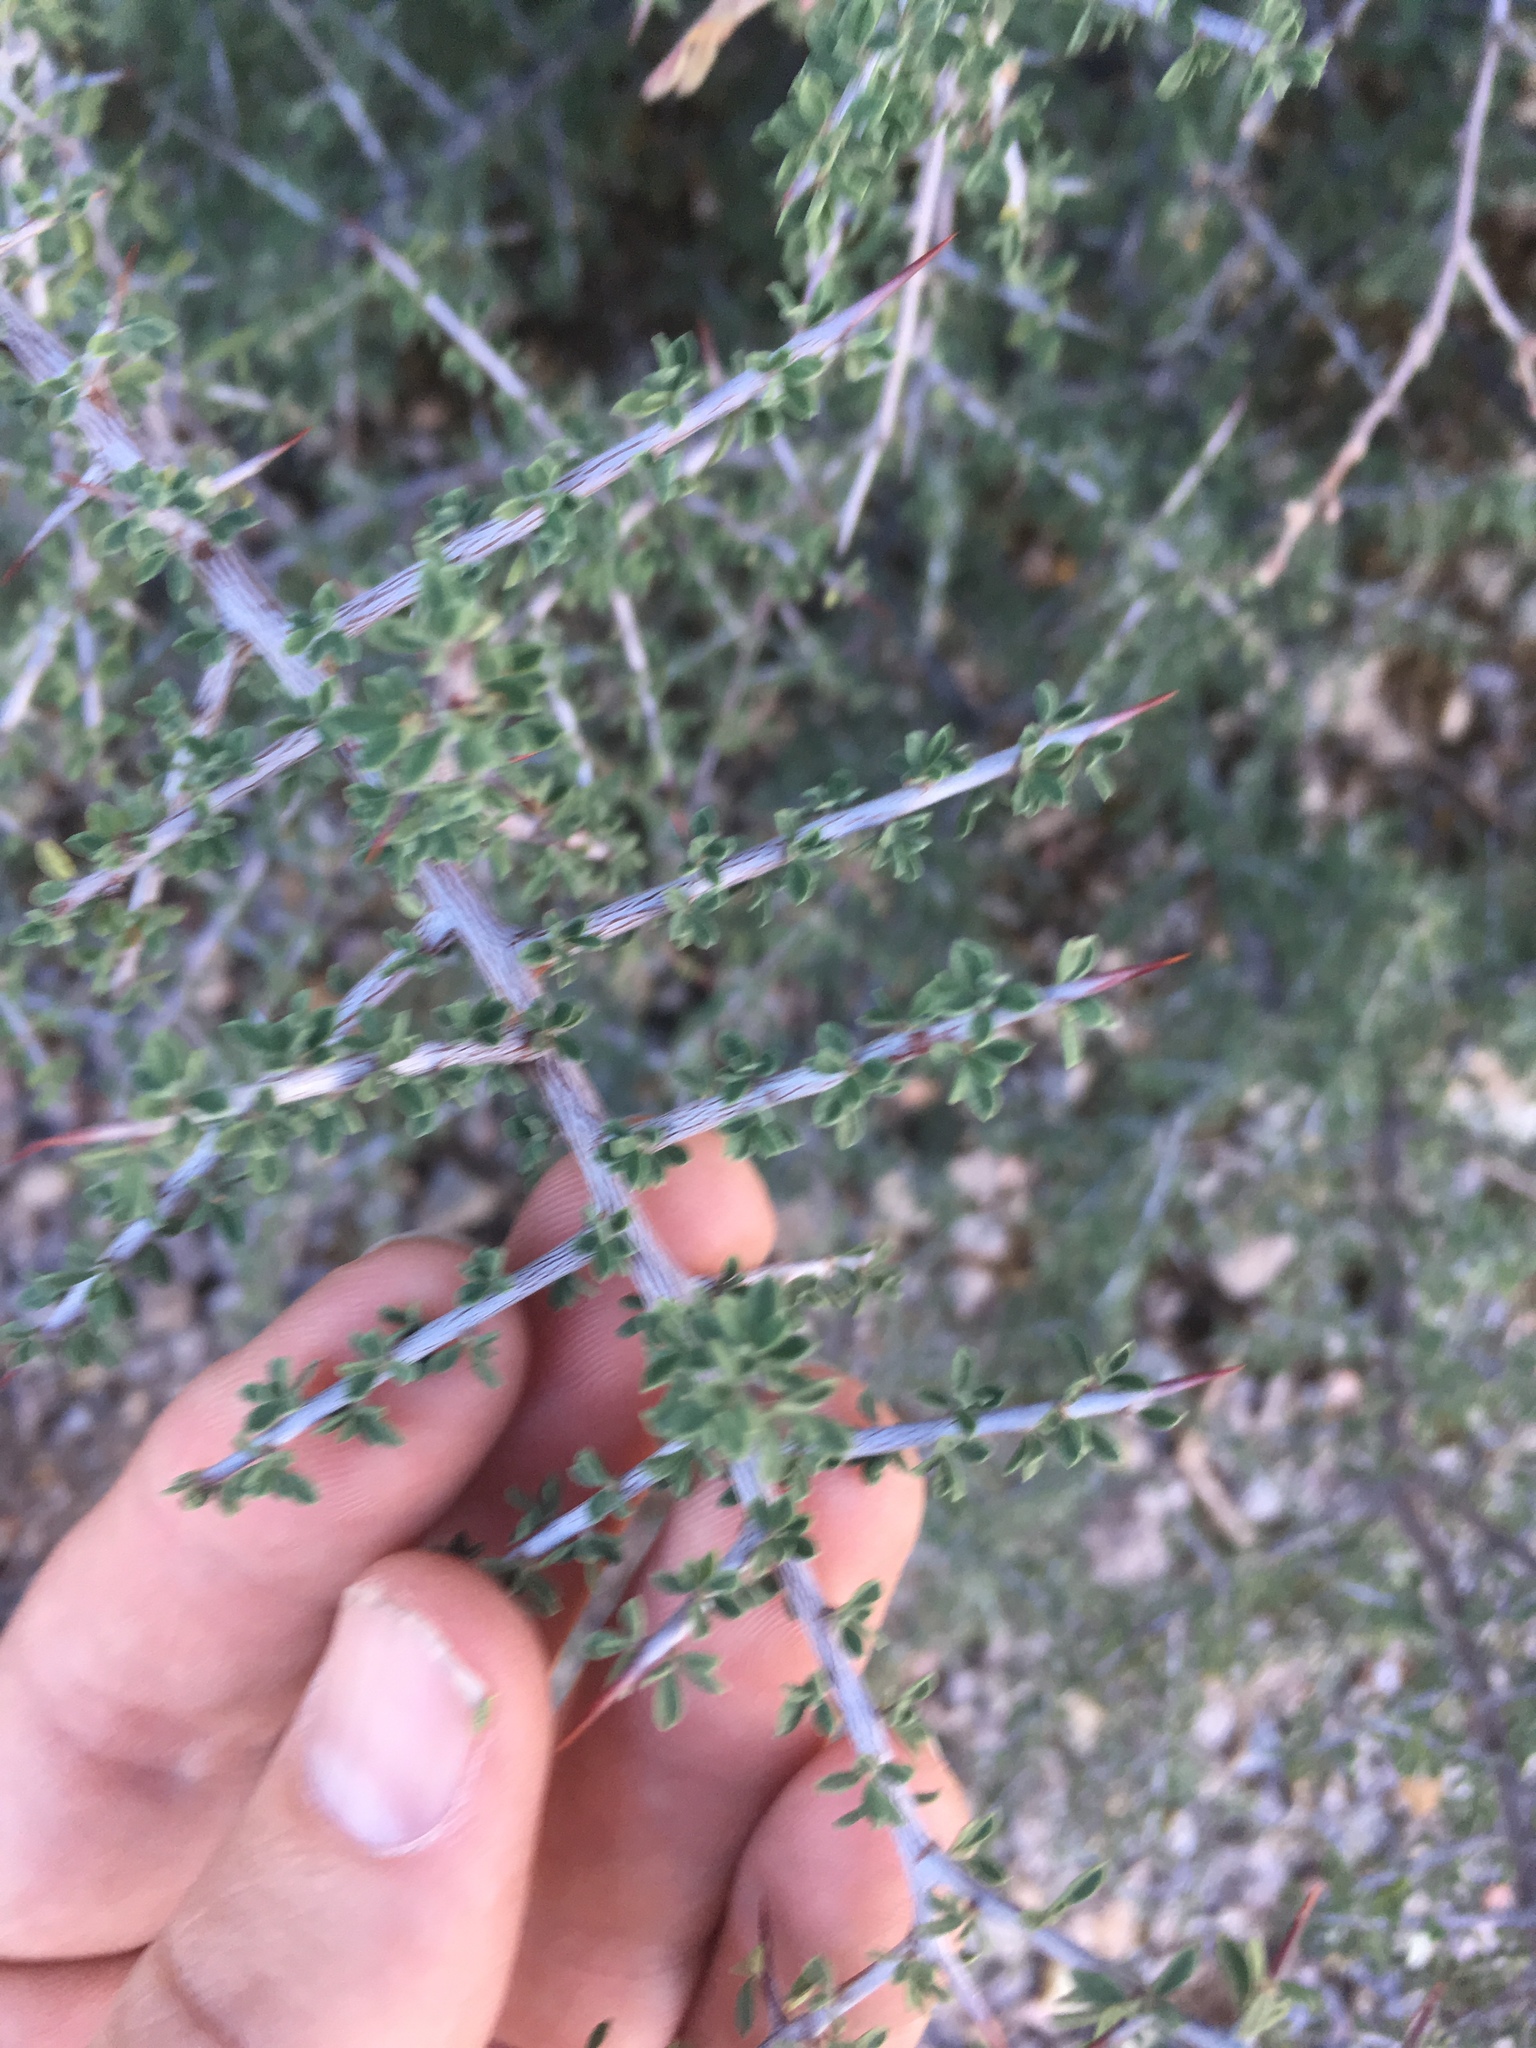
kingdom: Plantae
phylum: Tracheophyta
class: Magnoliopsida
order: Rosales
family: Rhamnaceae
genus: Condalia
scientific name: Condalia warnockii
